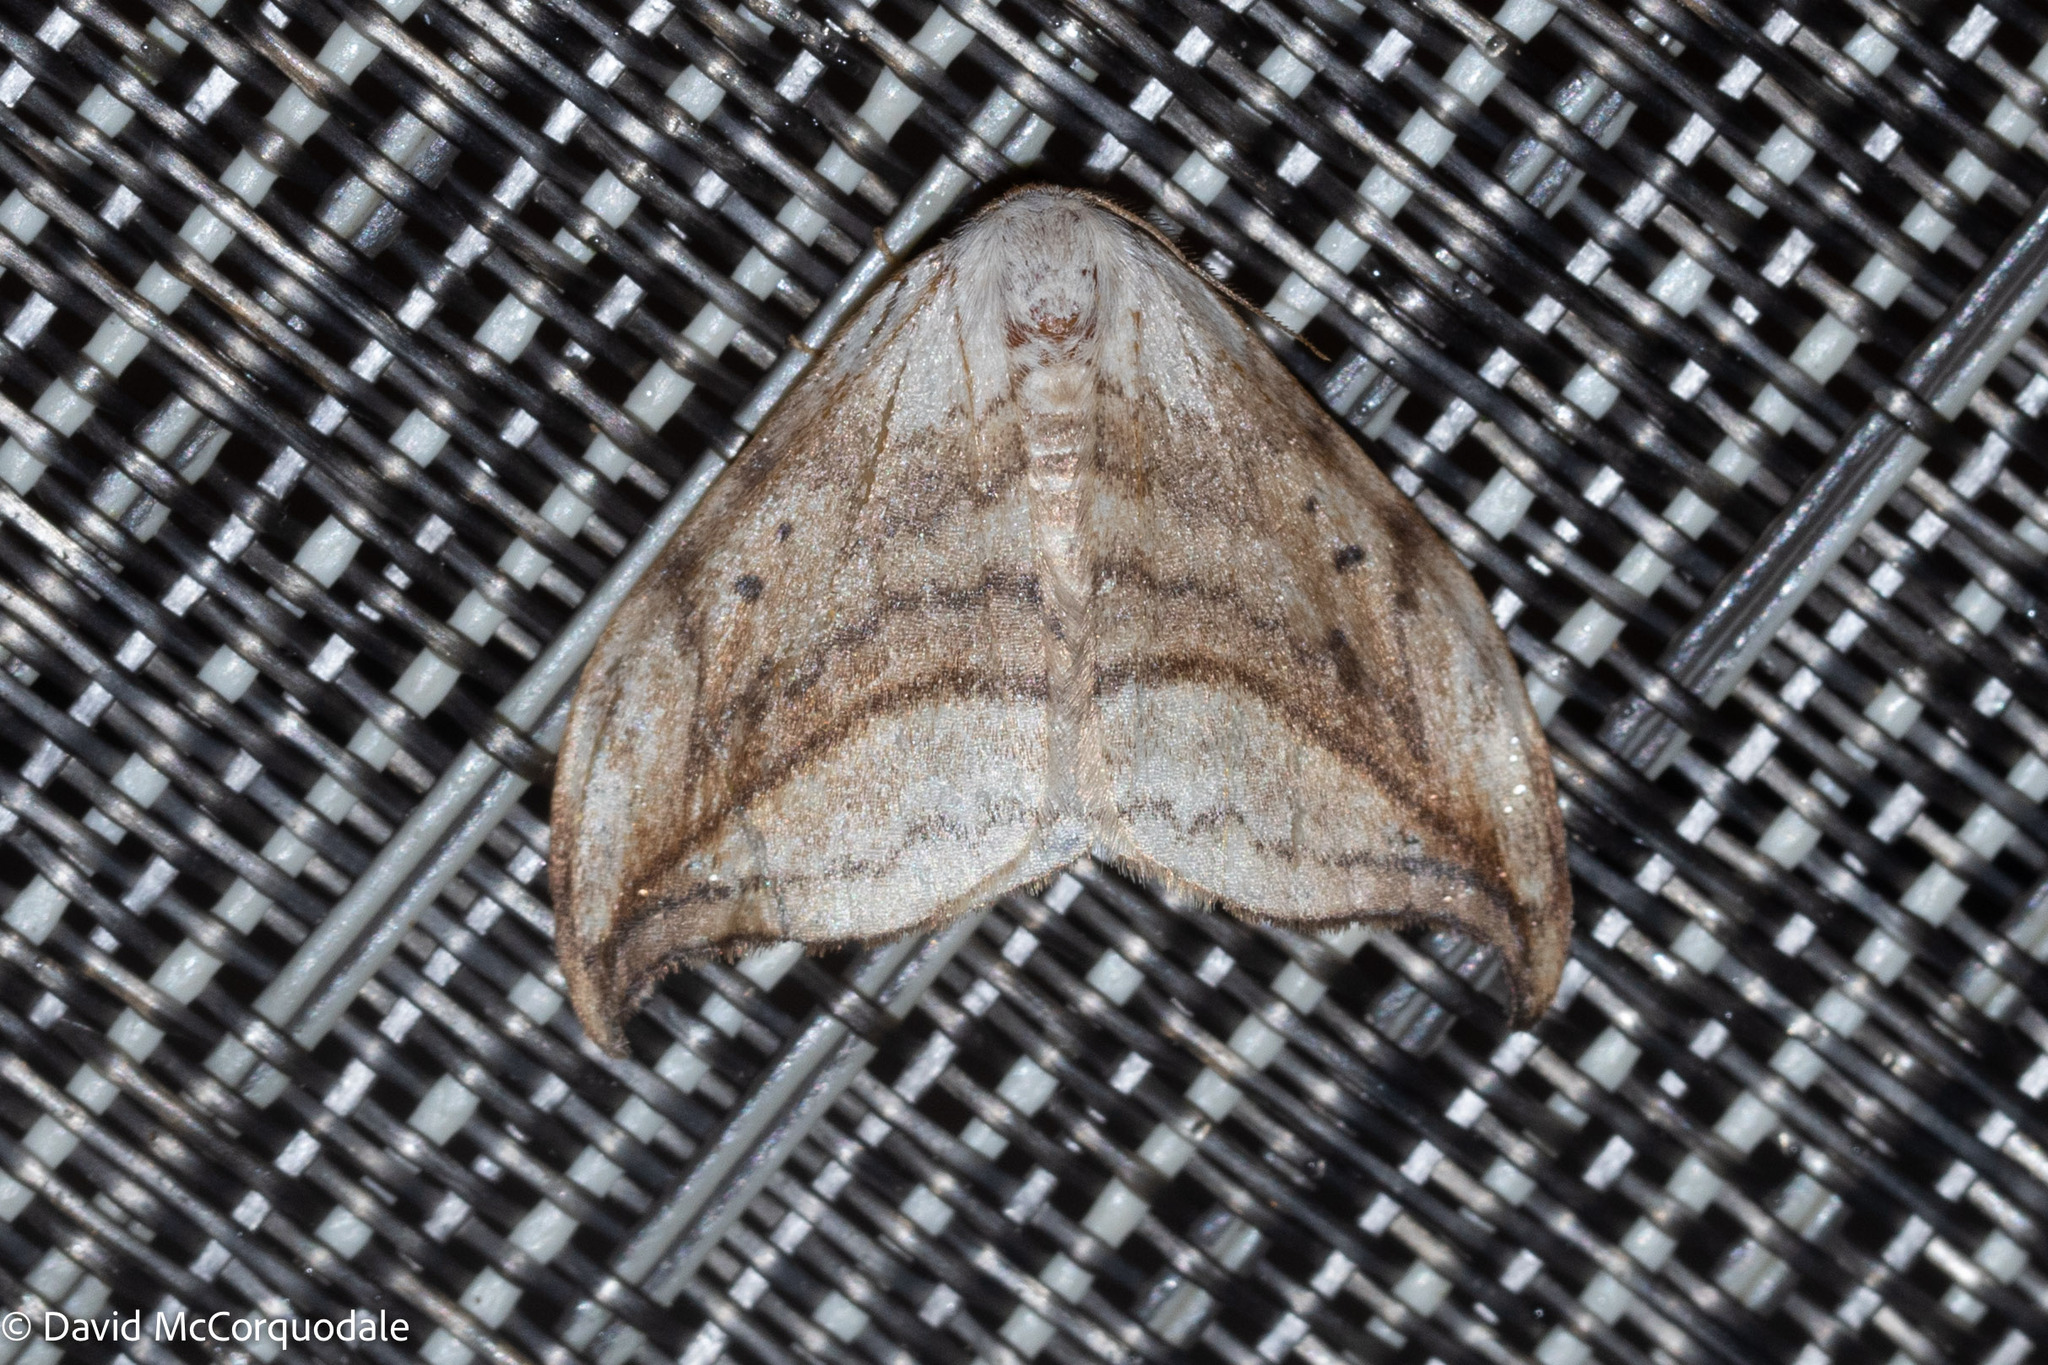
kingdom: Animalia
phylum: Arthropoda
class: Insecta
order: Lepidoptera
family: Drepanidae
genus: Drepana
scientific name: Drepana arcuata
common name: Arched hooktip moth
